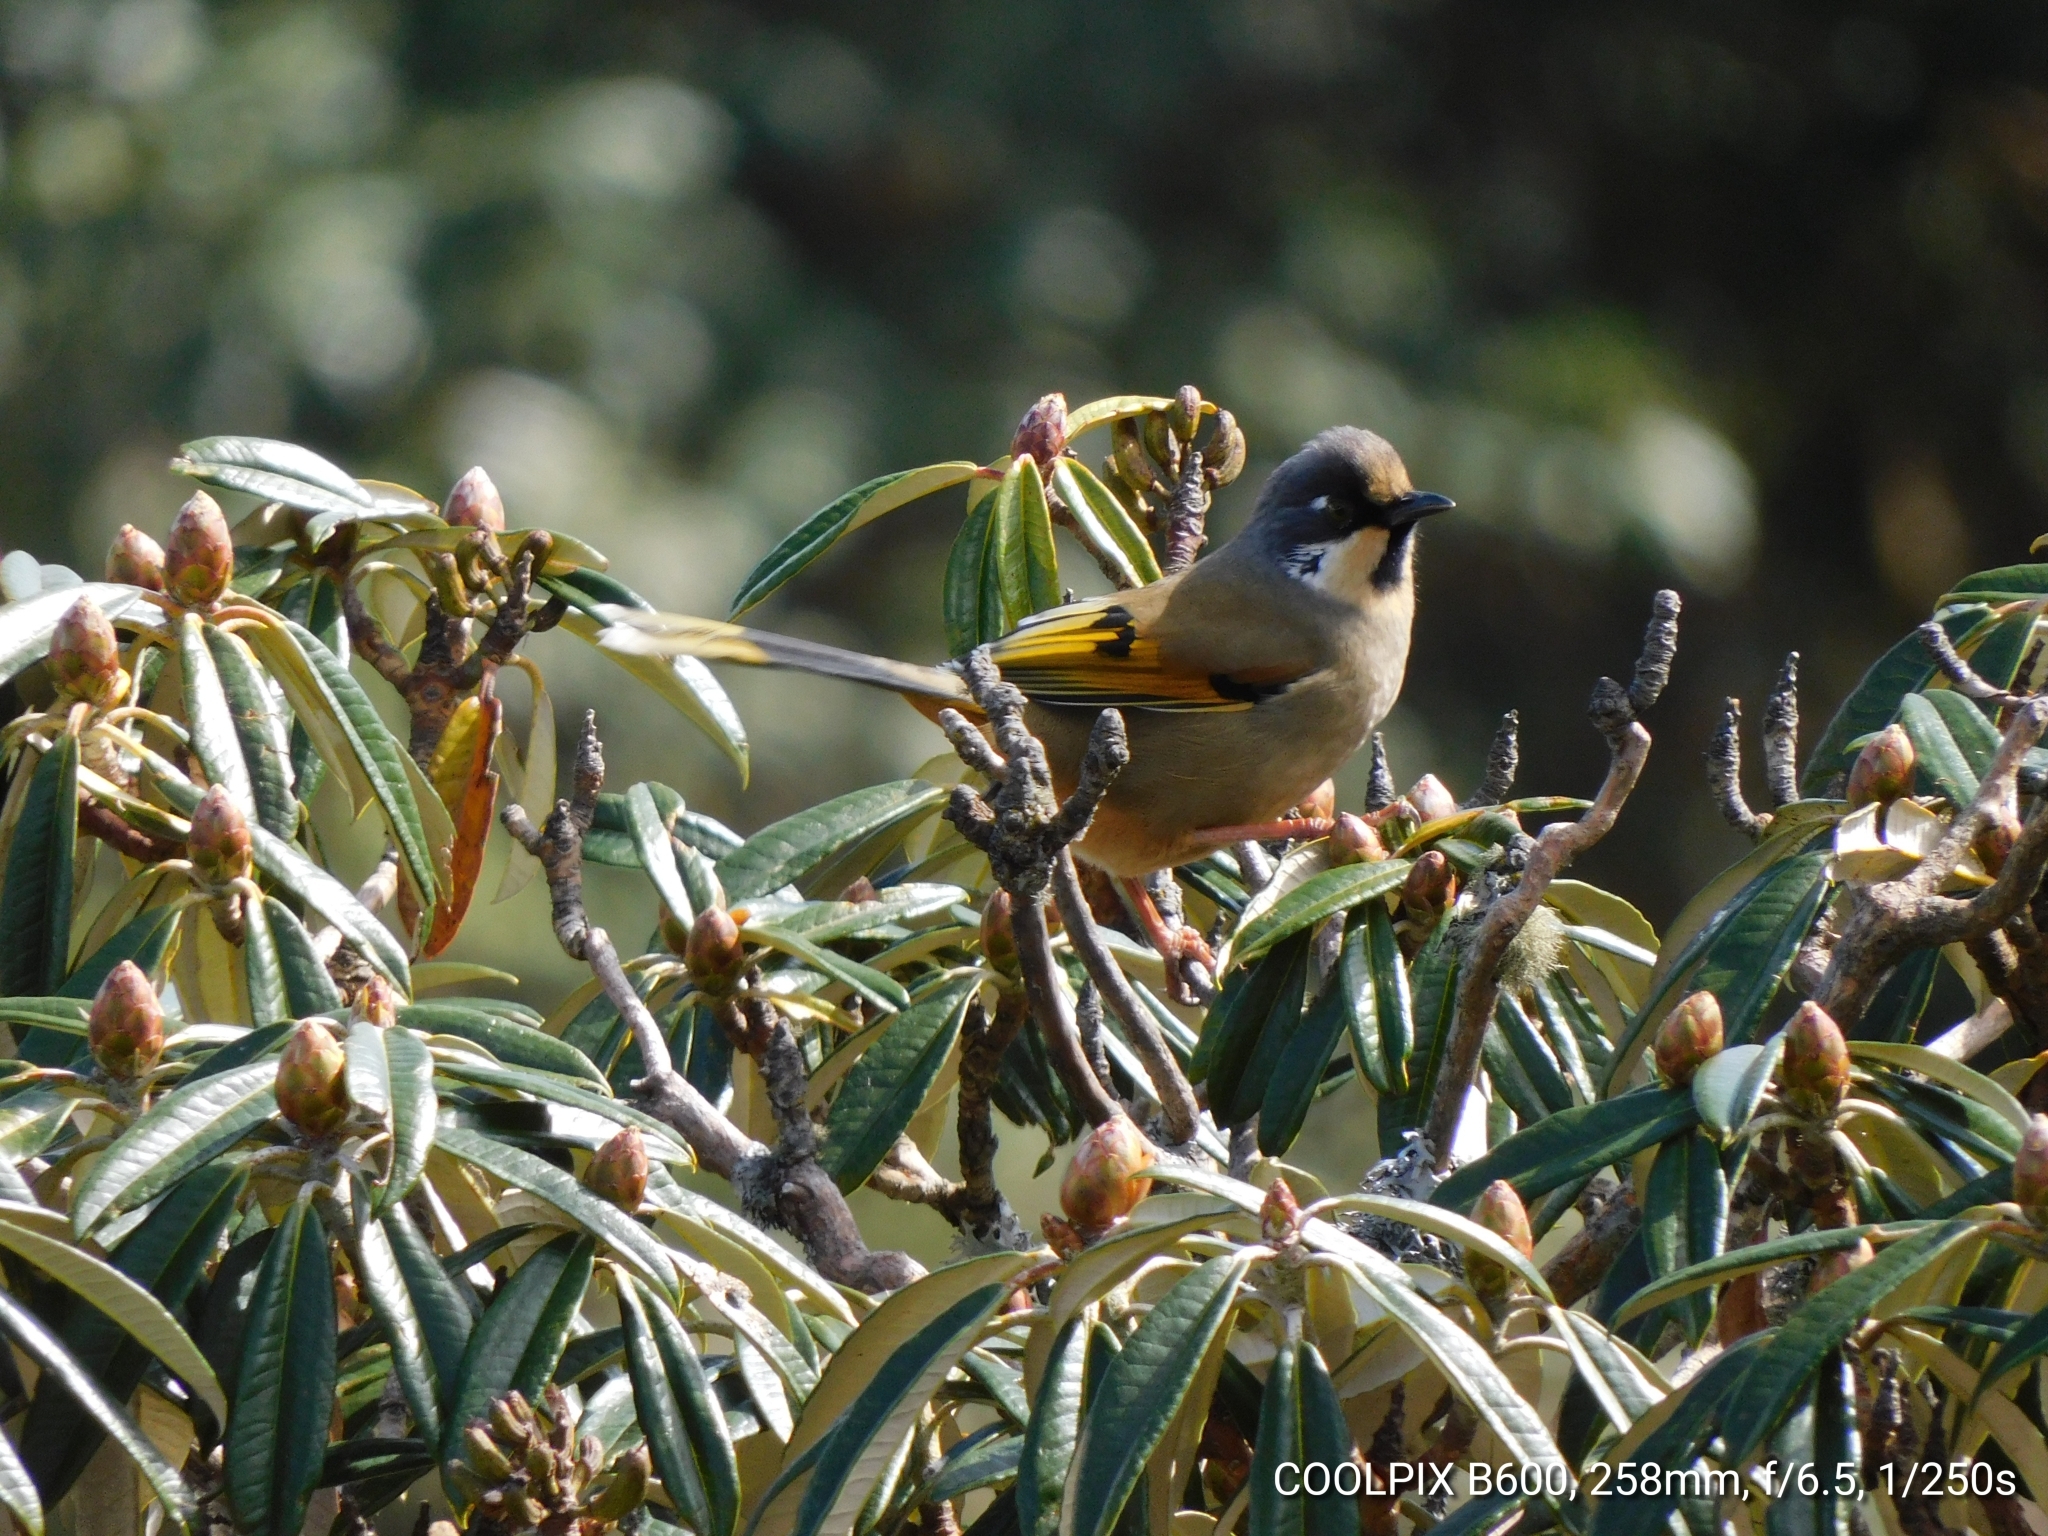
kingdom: Animalia
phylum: Chordata
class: Aves
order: Passeriformes
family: Leiothrichidae
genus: Trochalopteron
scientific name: Trochalopteron variegatum
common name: Variegated laughingthrush
